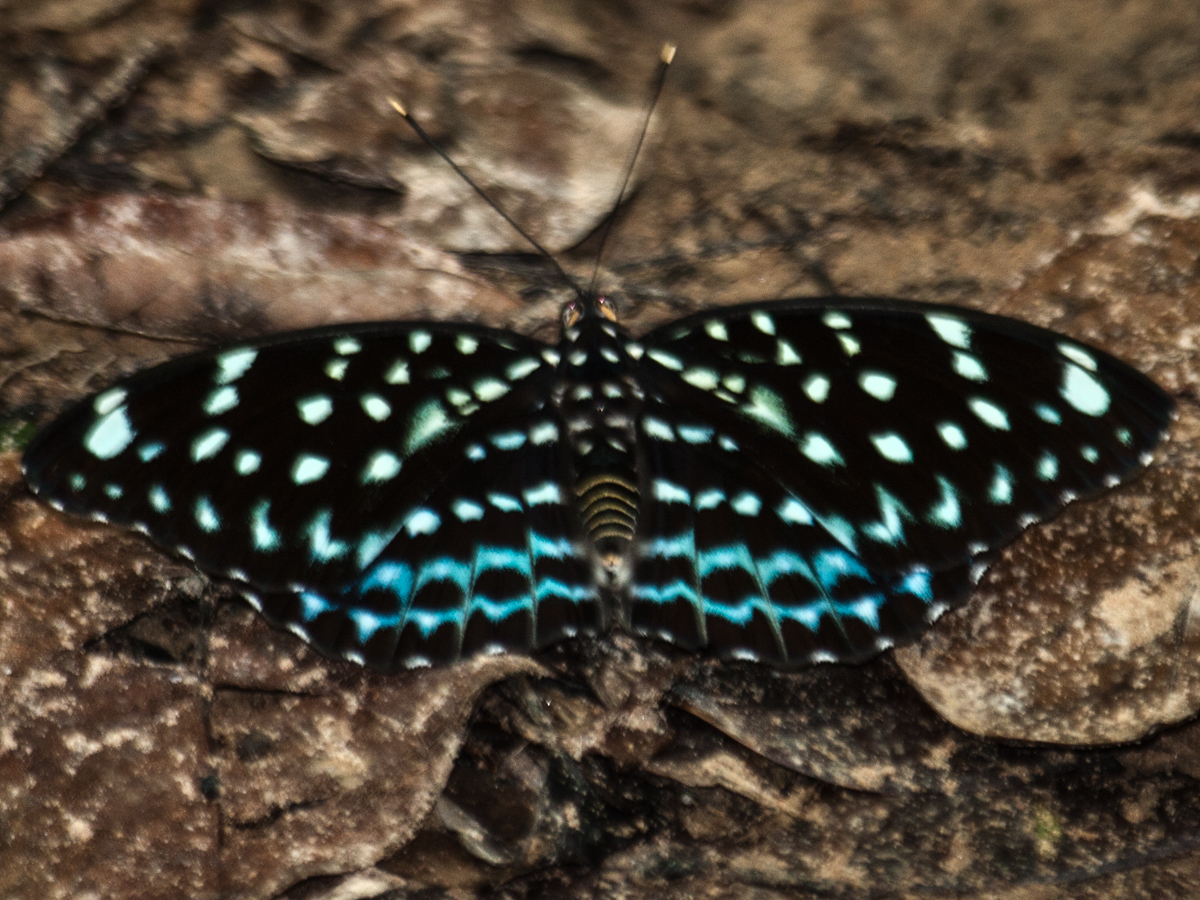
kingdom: Animalia
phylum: Arthropoda
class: Insecta
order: Lepidoptera
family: Nymphalidae
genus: Lexias
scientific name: Lexias
